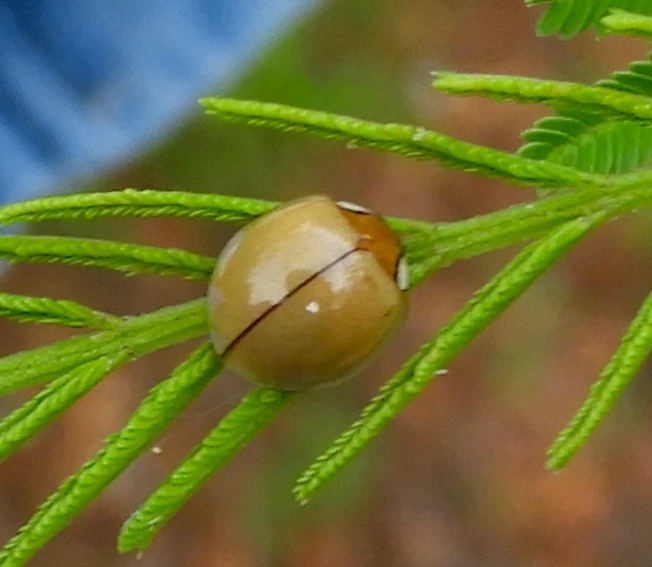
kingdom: Animalia
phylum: Arthropoda
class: Insecta
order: Coleoptera
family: Coccinellidae
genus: Paraneda
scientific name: Paraneda pallidula
